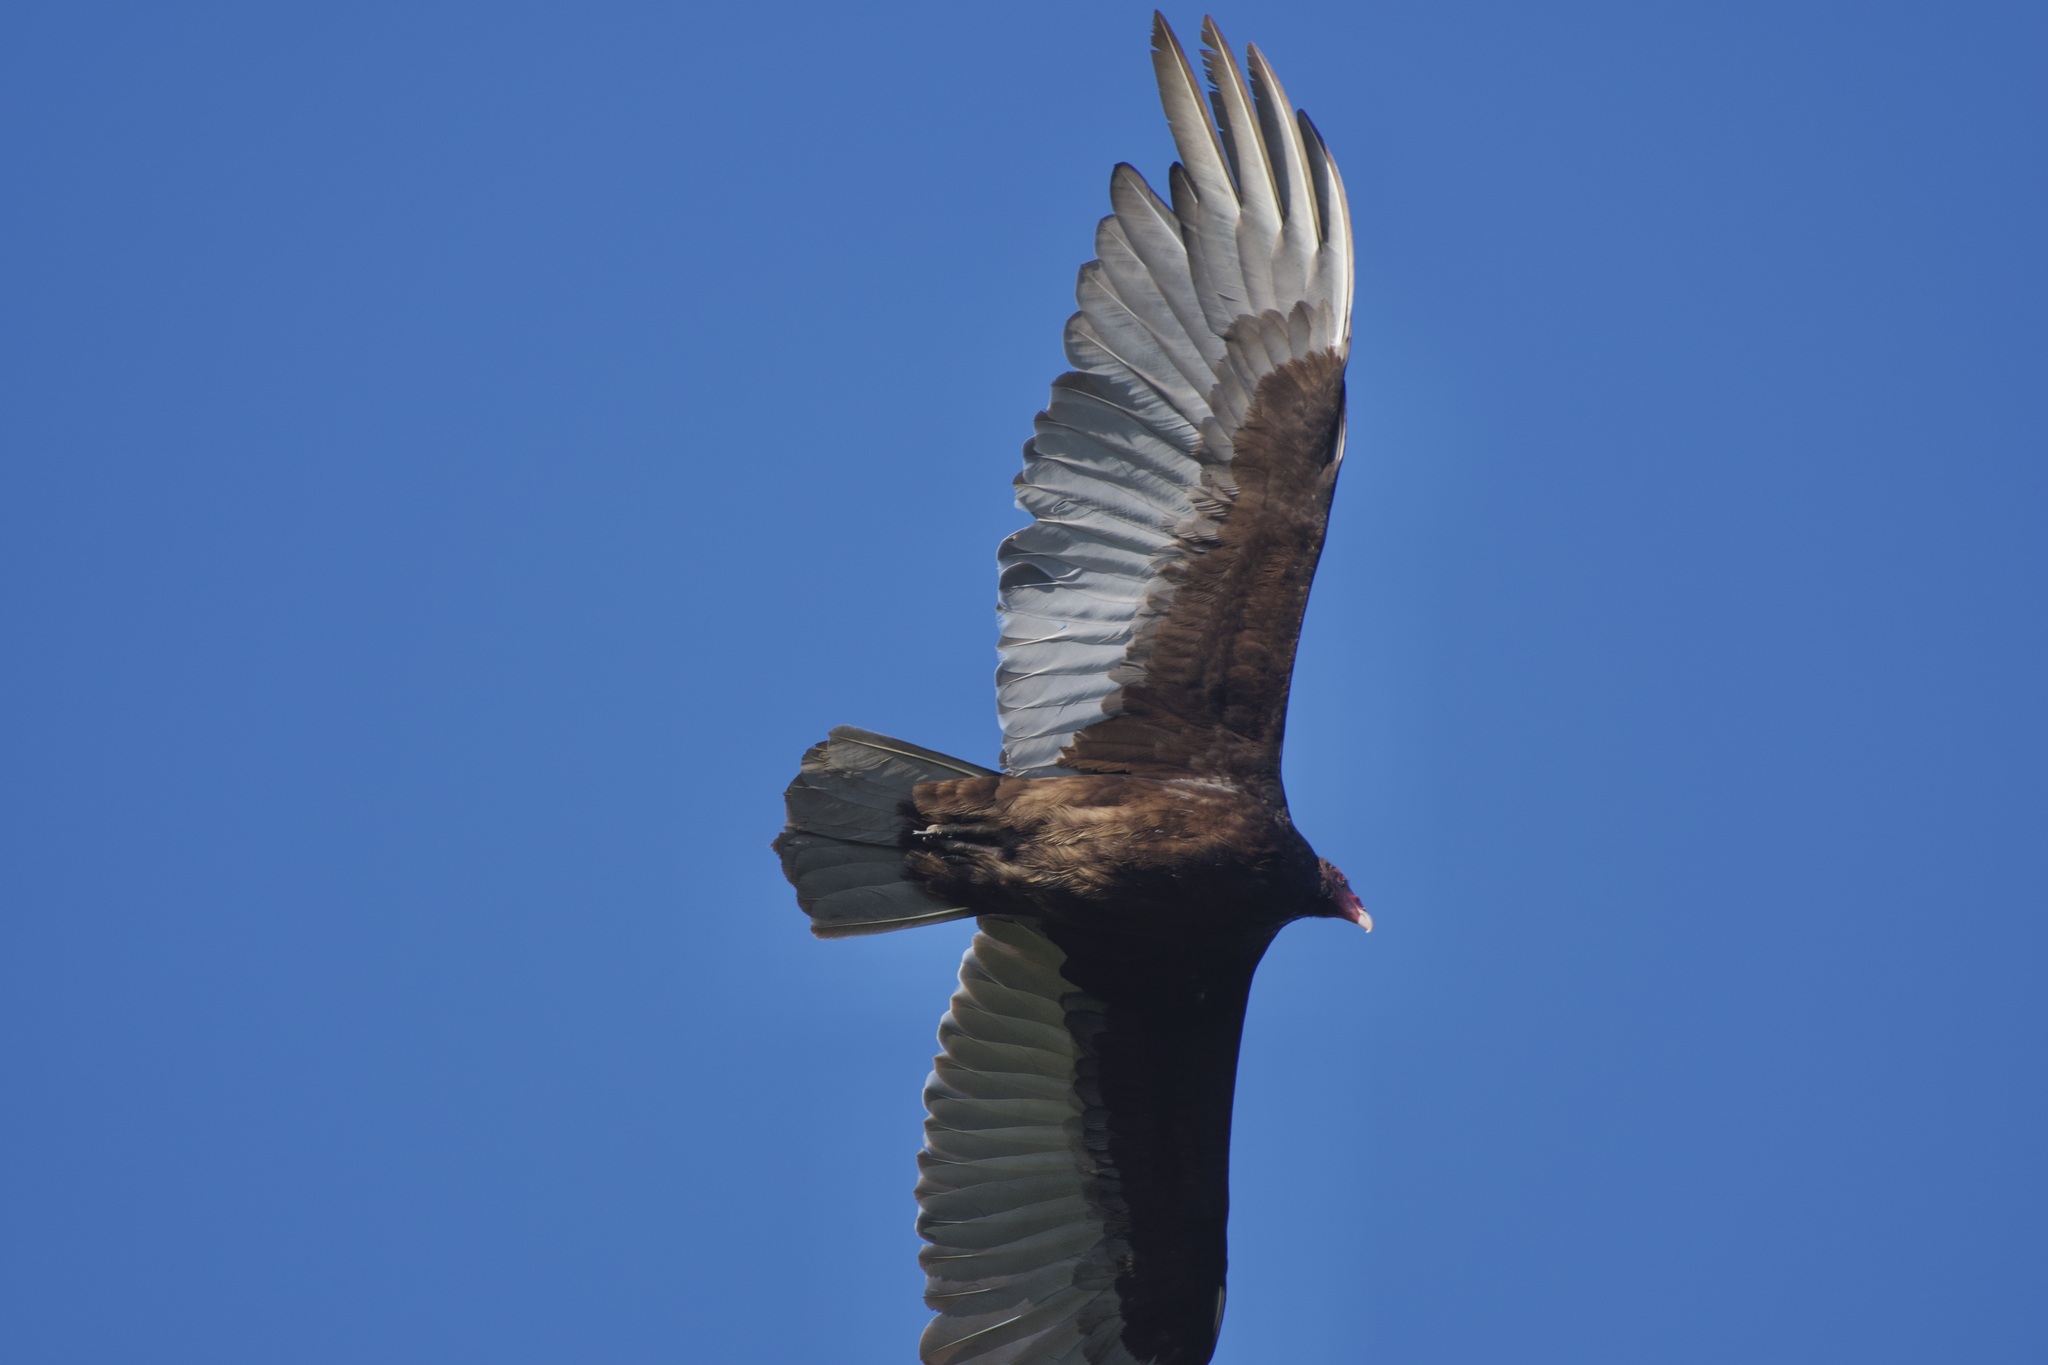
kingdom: Animalia
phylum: Chordata
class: Aves
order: Accipitriformes
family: Cathartidae
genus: Cathartes
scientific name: Cathartes aura
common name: Turkey vulture
